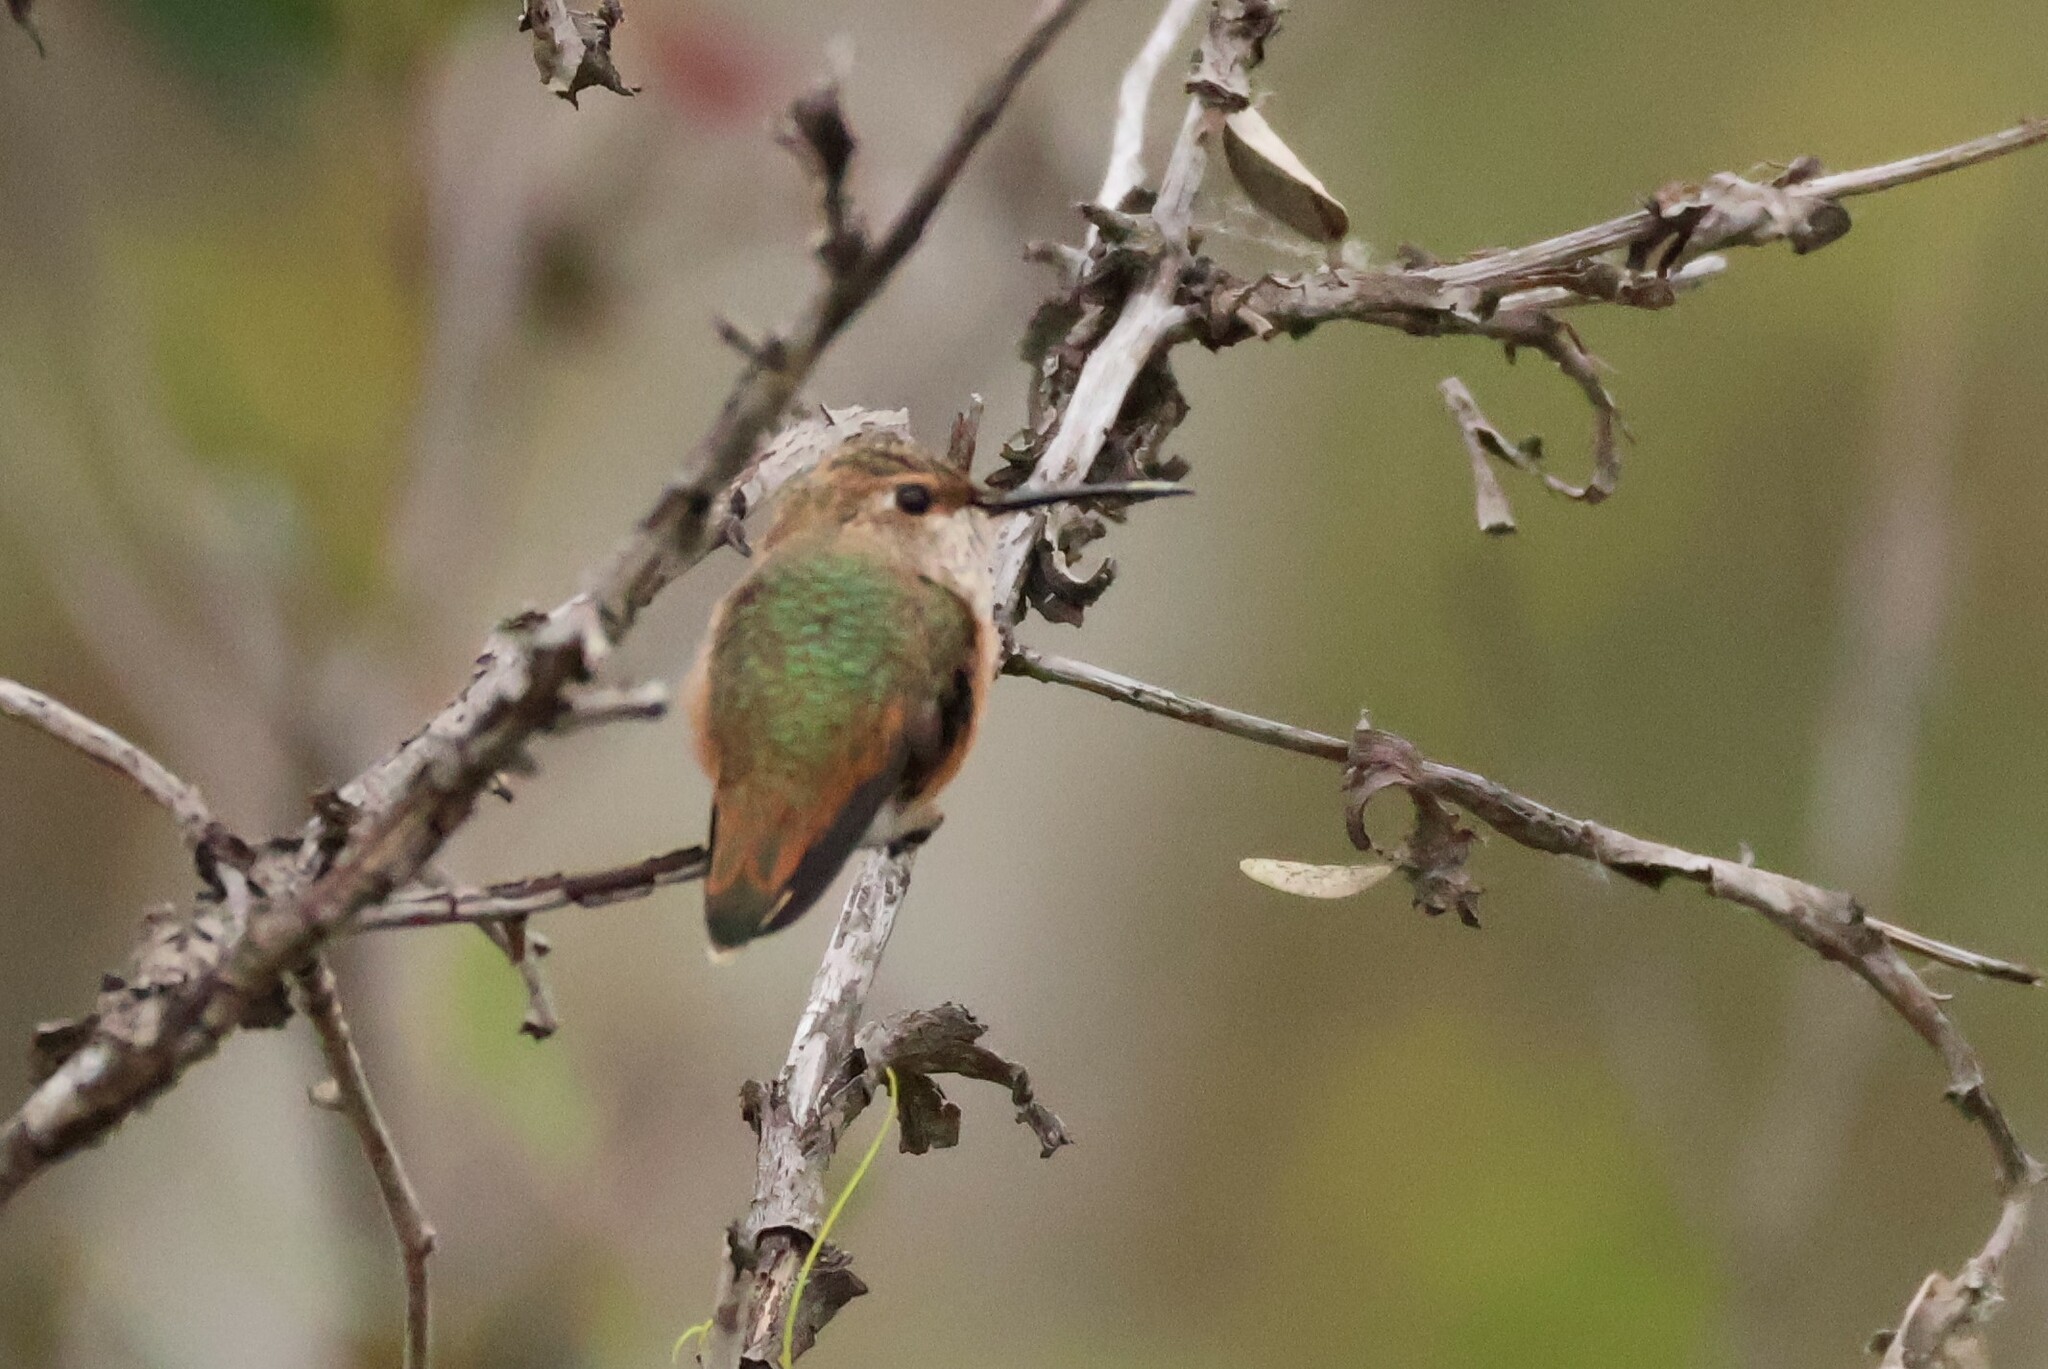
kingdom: Animalia
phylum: Chordata
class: Aves
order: Apodiformes
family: Trochilidae
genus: Selasphorus
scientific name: Selasphorus sasin
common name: Allen's hummingbird
